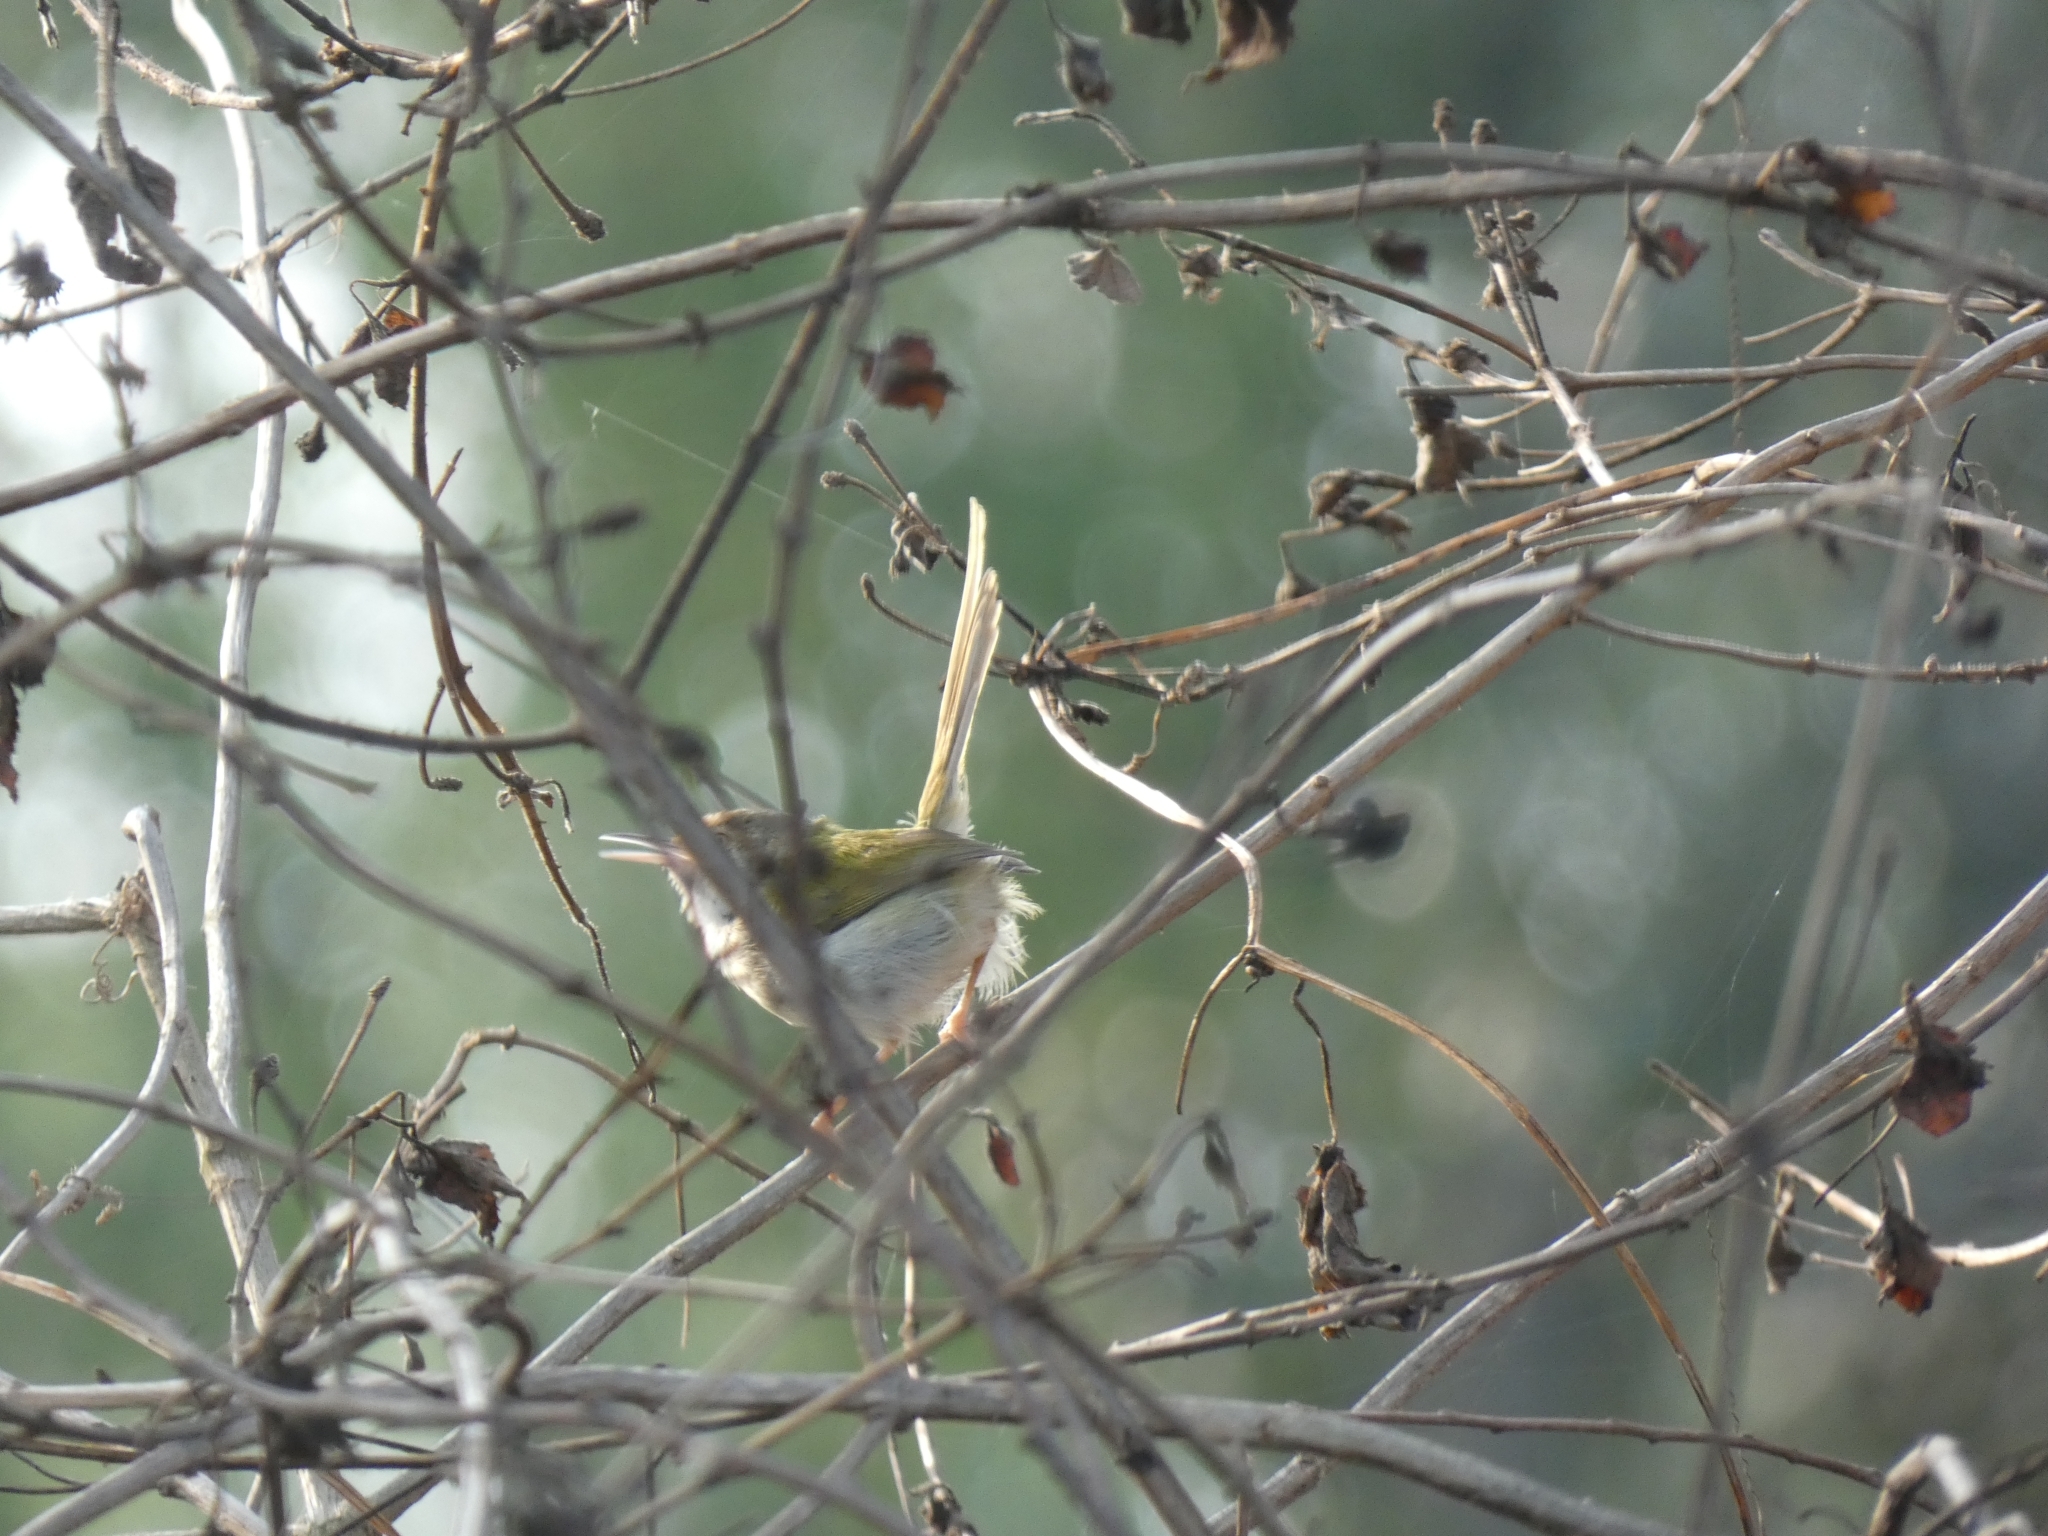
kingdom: Animalia
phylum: Chordata
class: Aves
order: Passeriformes
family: Cisticolidae
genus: Orthotomus
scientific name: Orthotomus sutorius
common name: Common tailorbird
